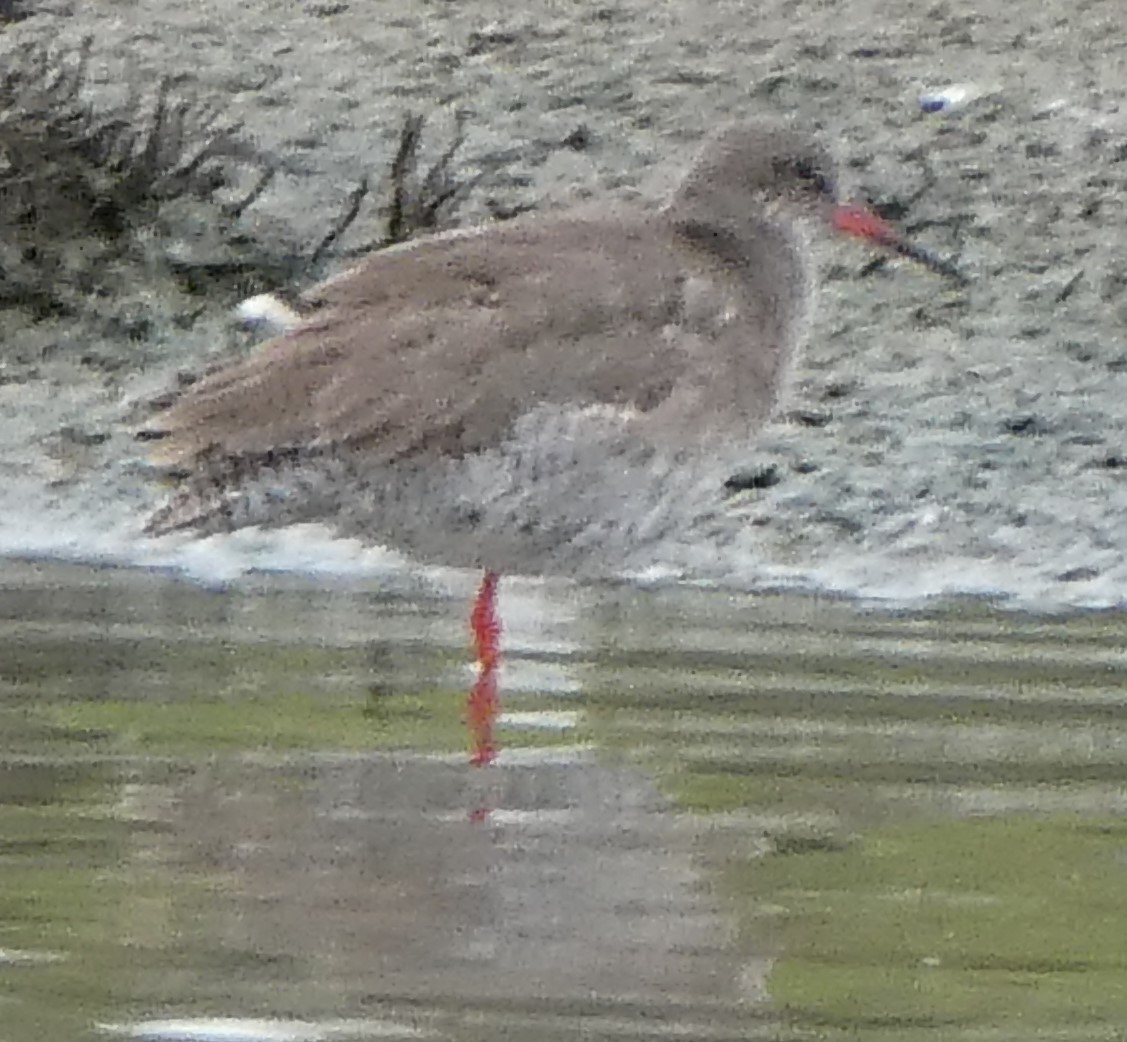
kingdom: Animalia
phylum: Chordata
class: Aves
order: Charadriiformes
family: Scolopacidae
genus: Tringa
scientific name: Tringa totanus
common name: Common redshank
